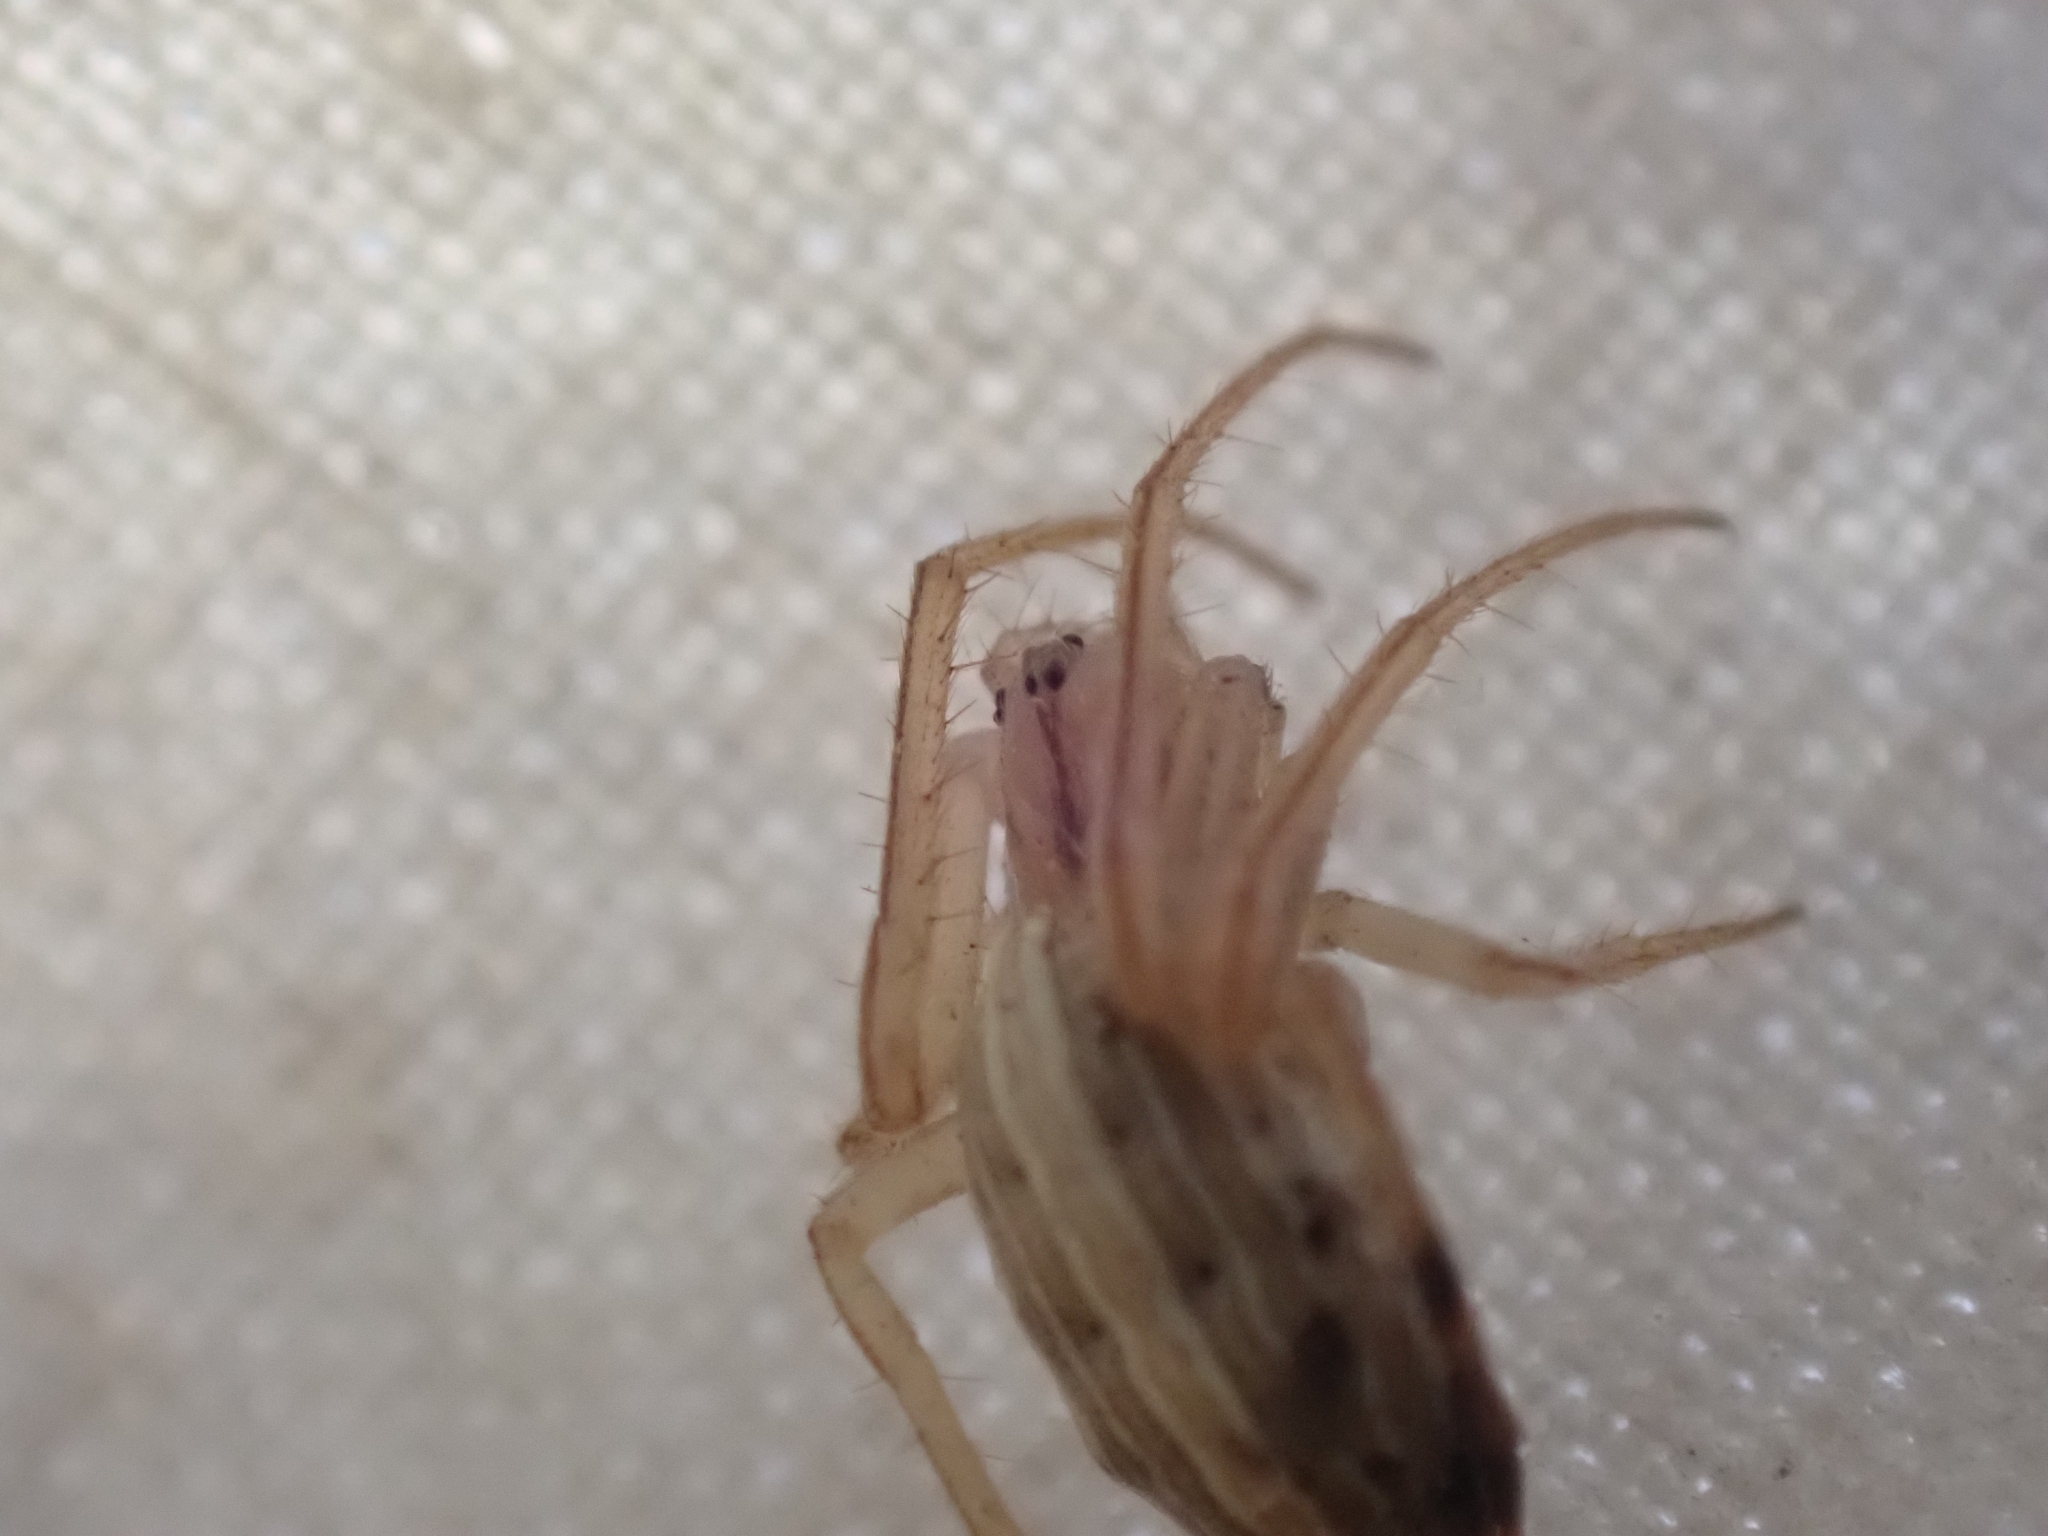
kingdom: Animalia
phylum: Arthropoda
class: Arachnida
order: Araneae
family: Araneidae
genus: Larinia
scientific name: Larinia borealis
